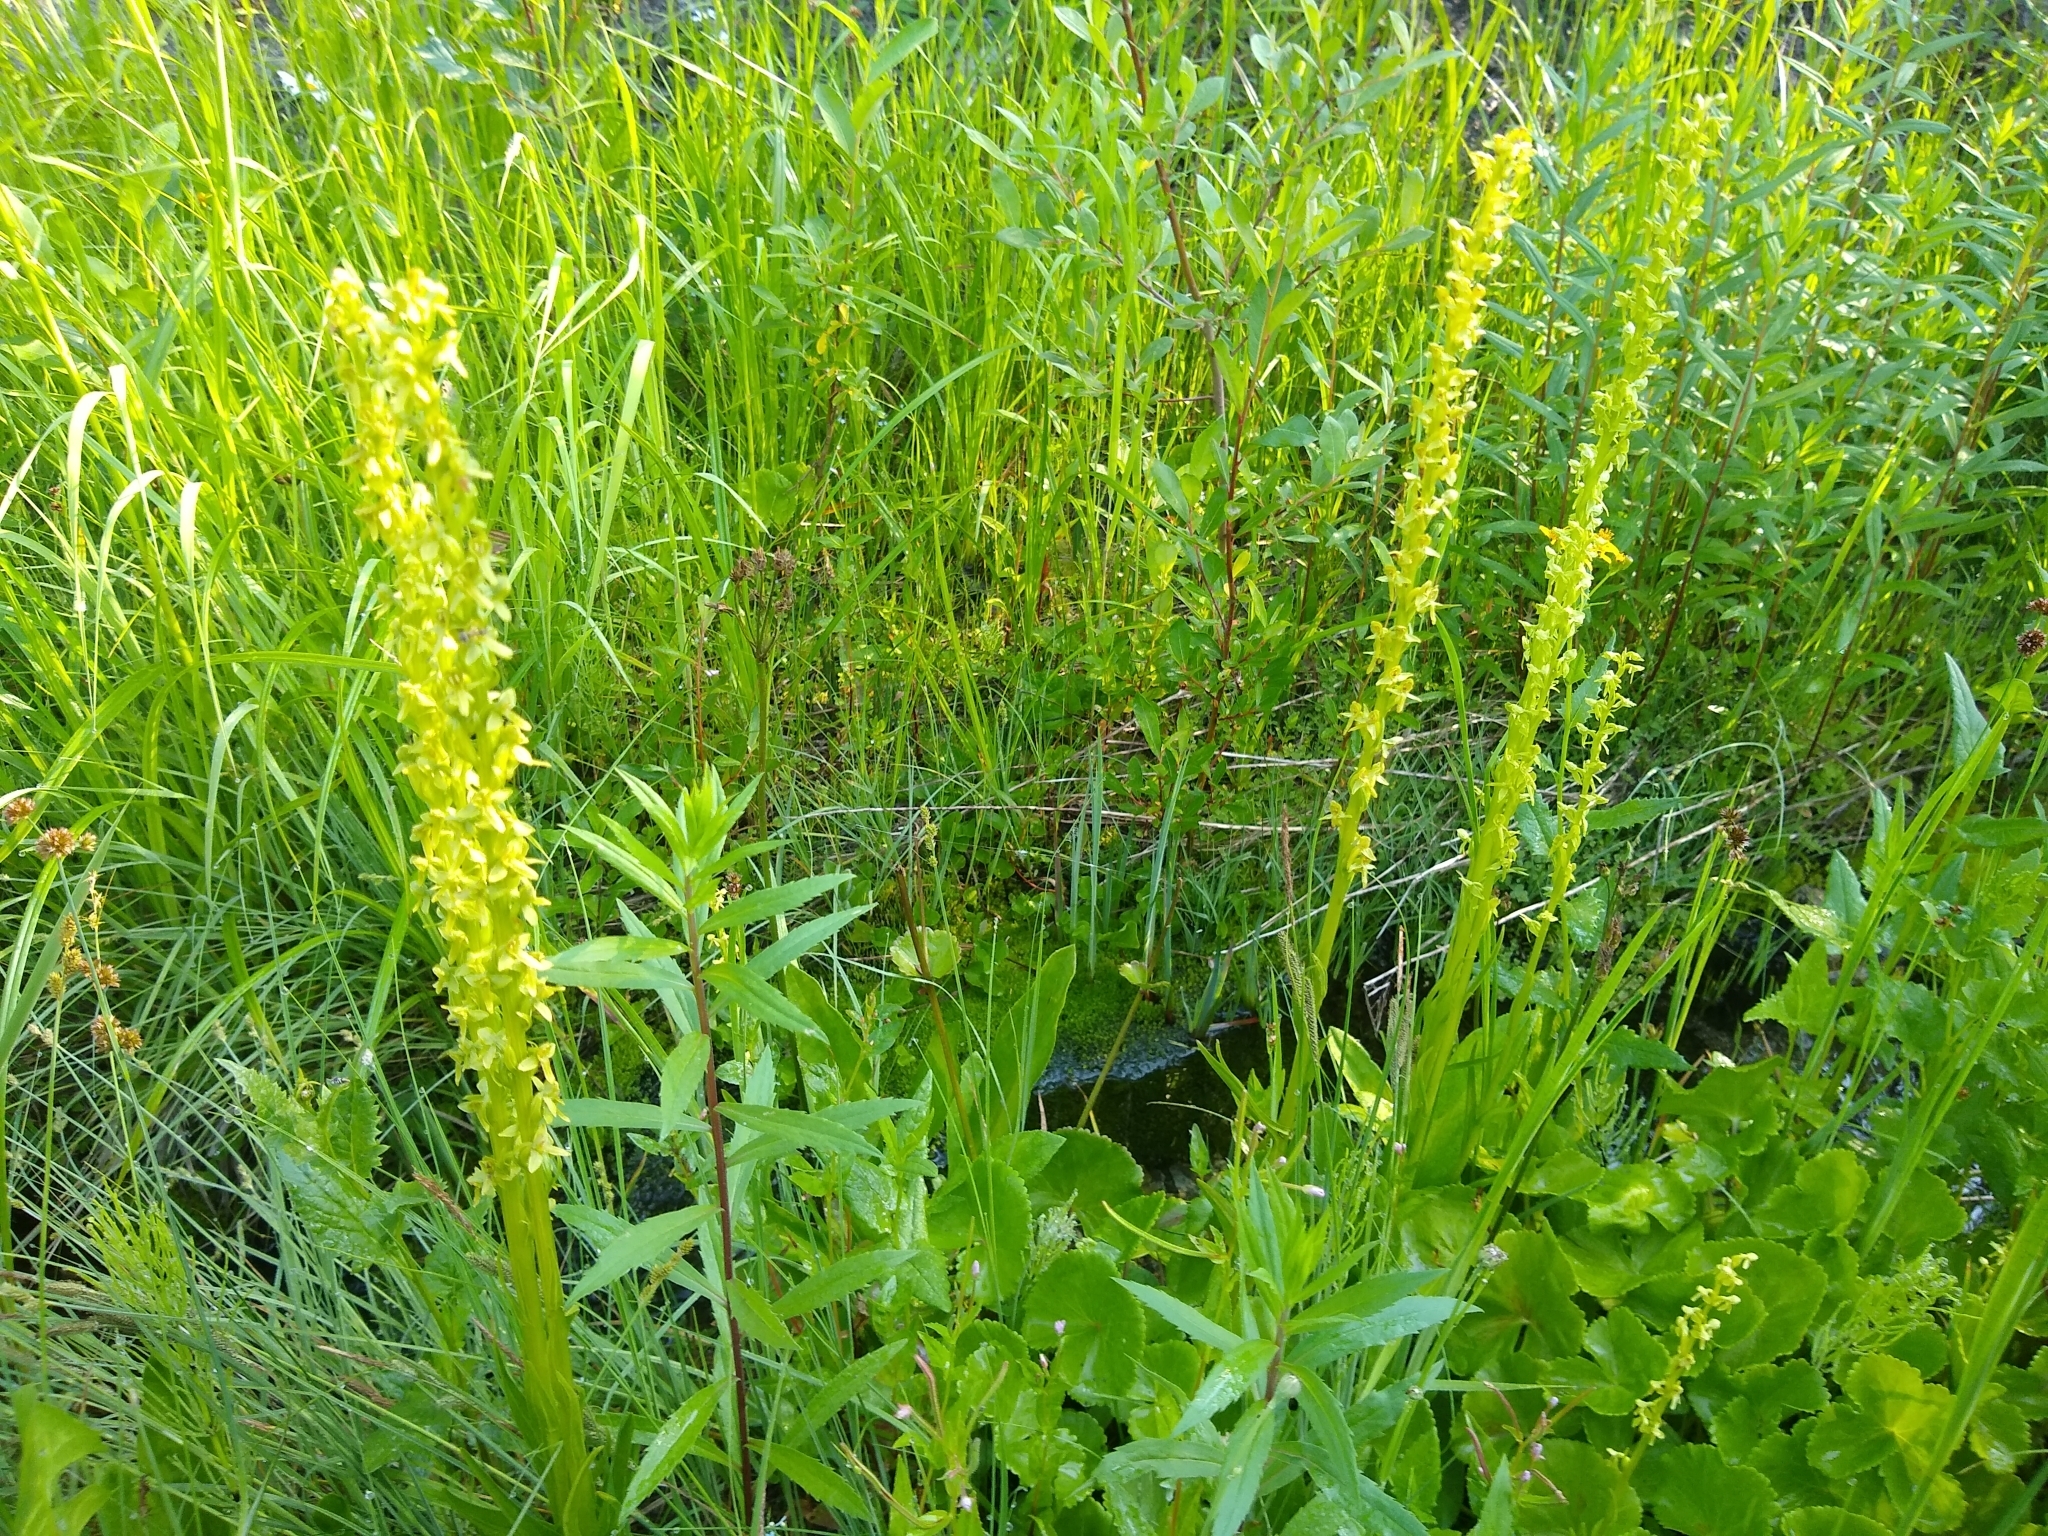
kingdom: Plantae
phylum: Tracheophyta
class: Liliopsida
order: Asparagales
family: Orchidaceae
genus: Platanthera
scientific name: Platanthera stricta
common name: Slender bog orchid
